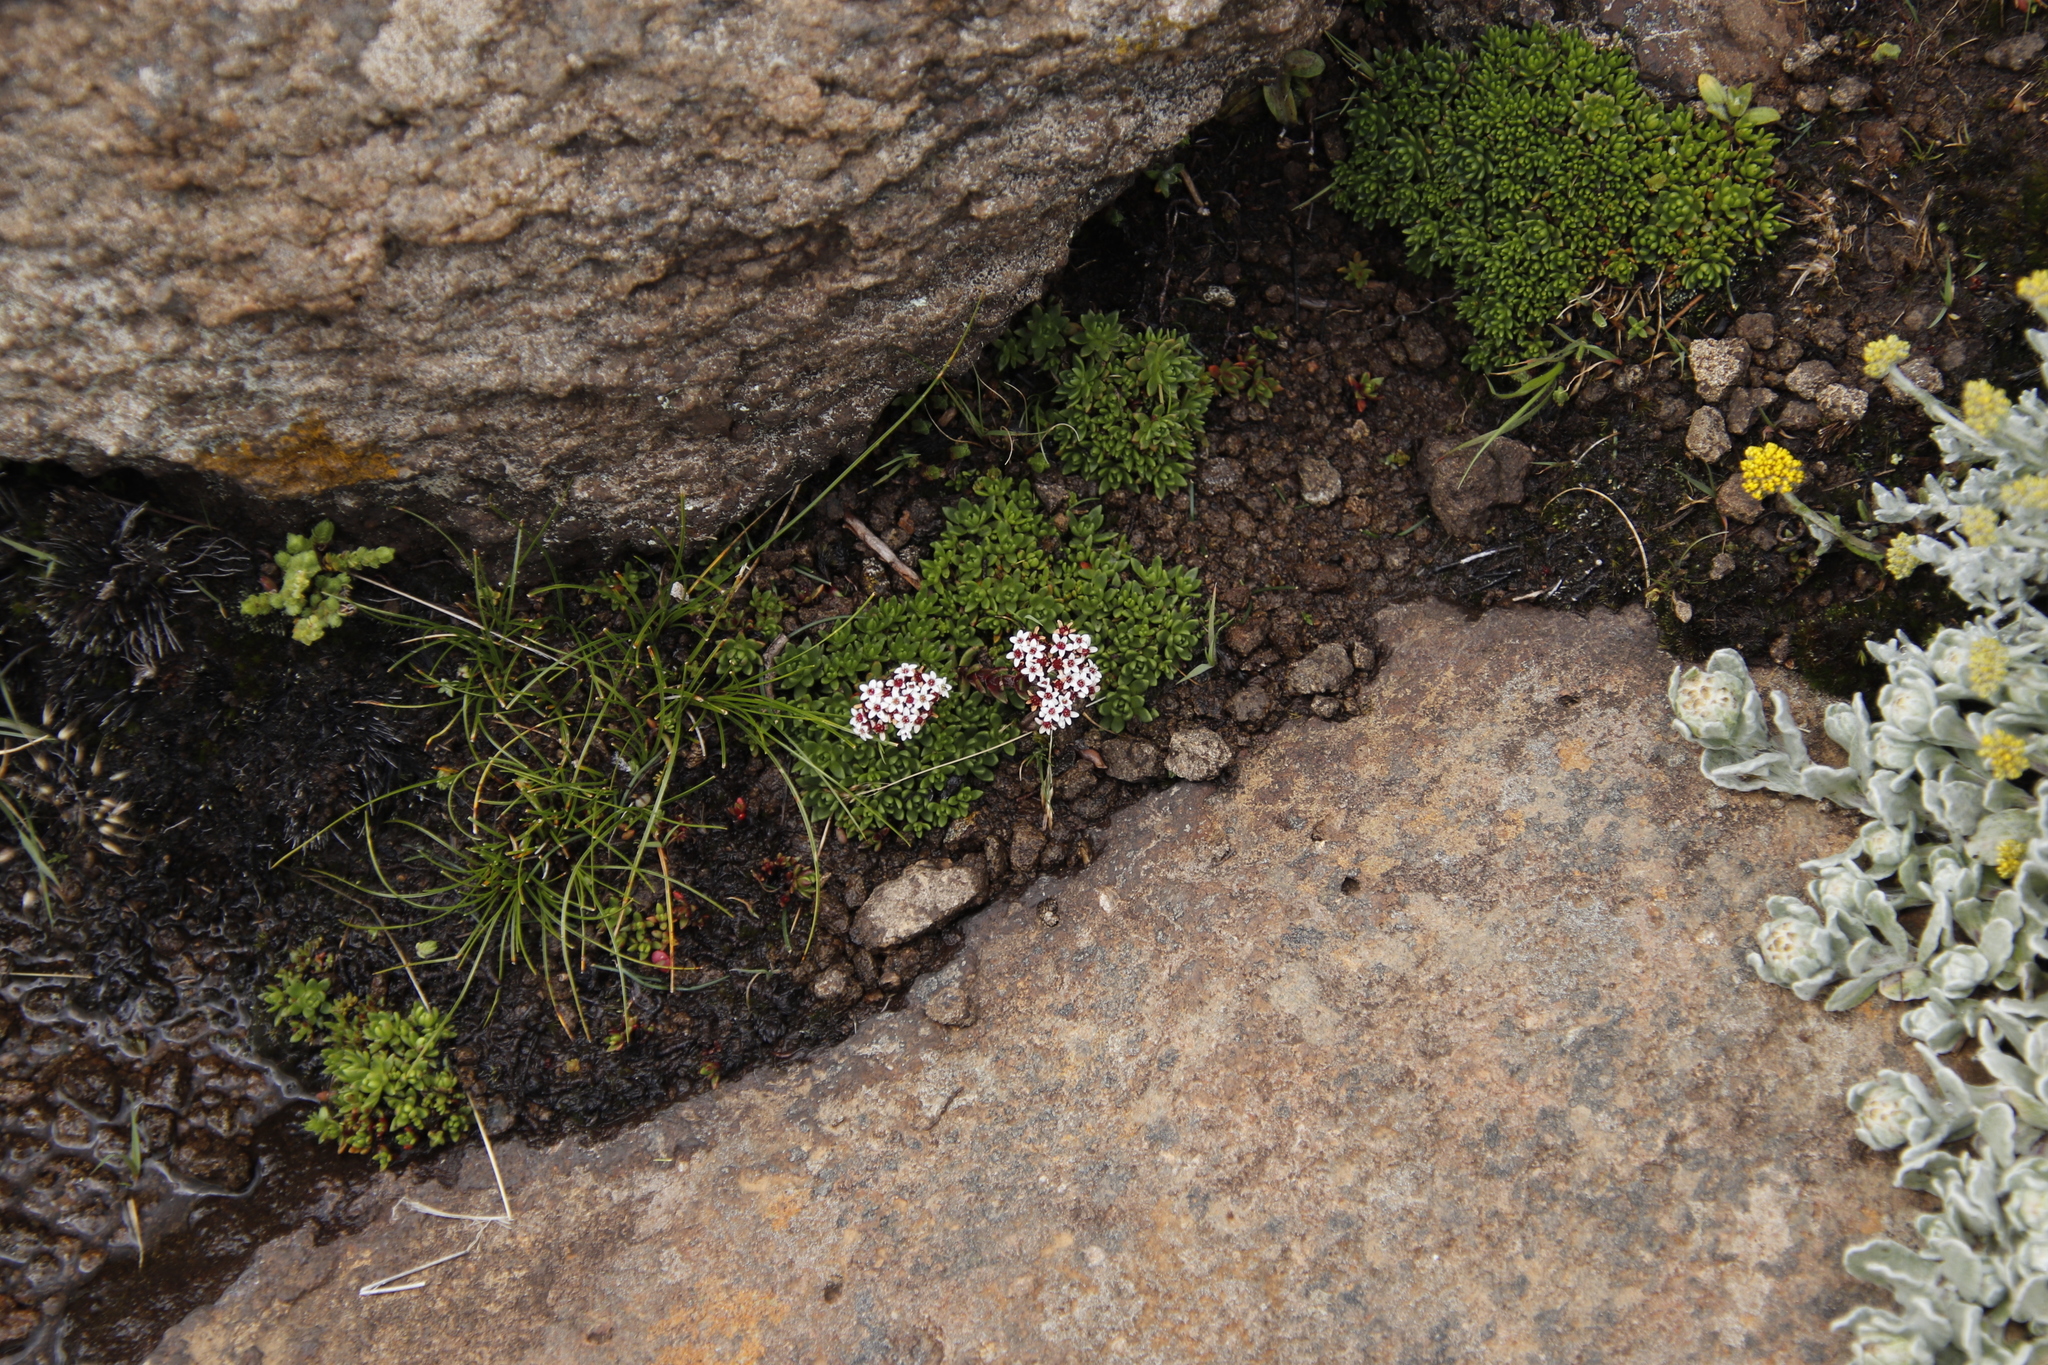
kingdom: Plantae
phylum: Tracheophyta
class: Magnoliopsida
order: Saxifragales
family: Crassulaceae
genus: Crassula
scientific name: Crassula setulosa
